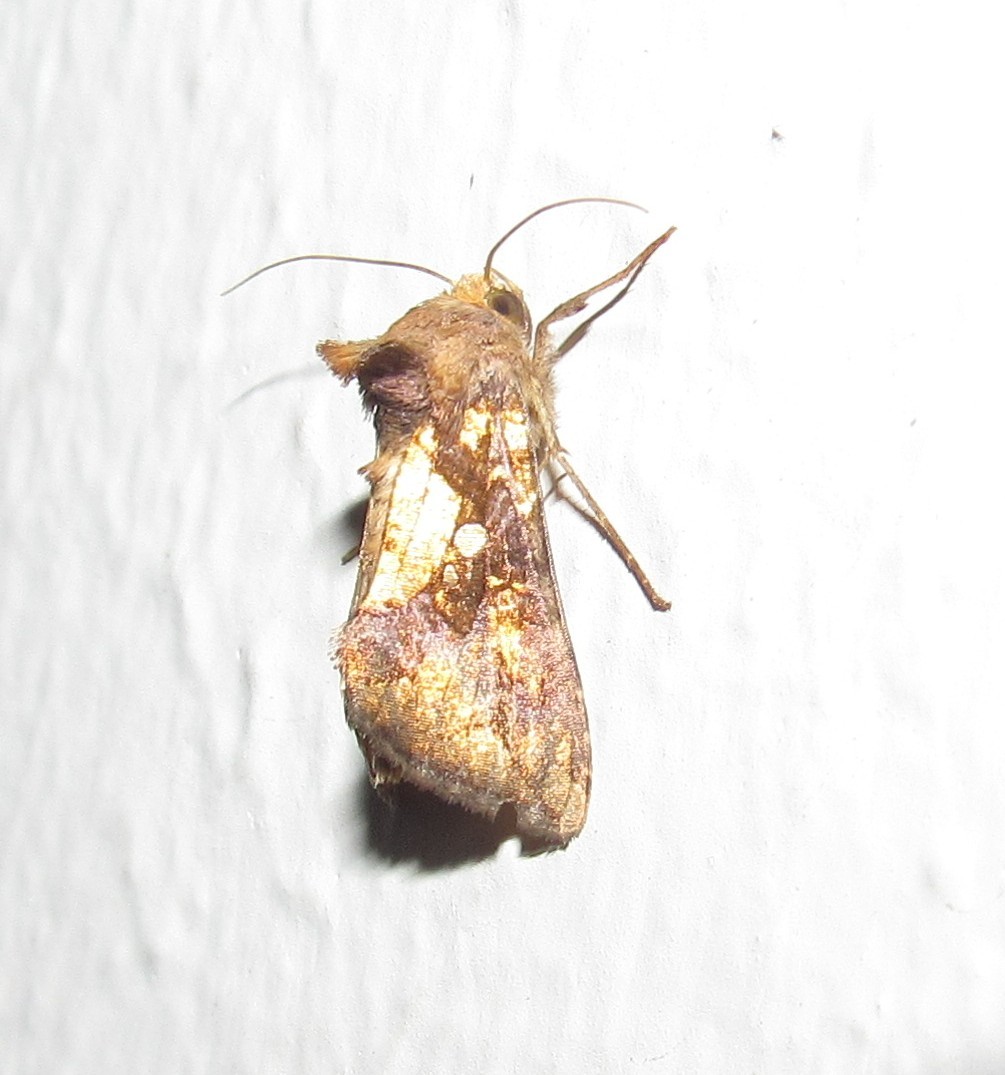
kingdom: Animalia
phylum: Arthropoda
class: Insecta
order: Lepidoptera
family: Noctuidae
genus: Argyrogramma
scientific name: Argyrogramma verruca
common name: Golden looper moth
